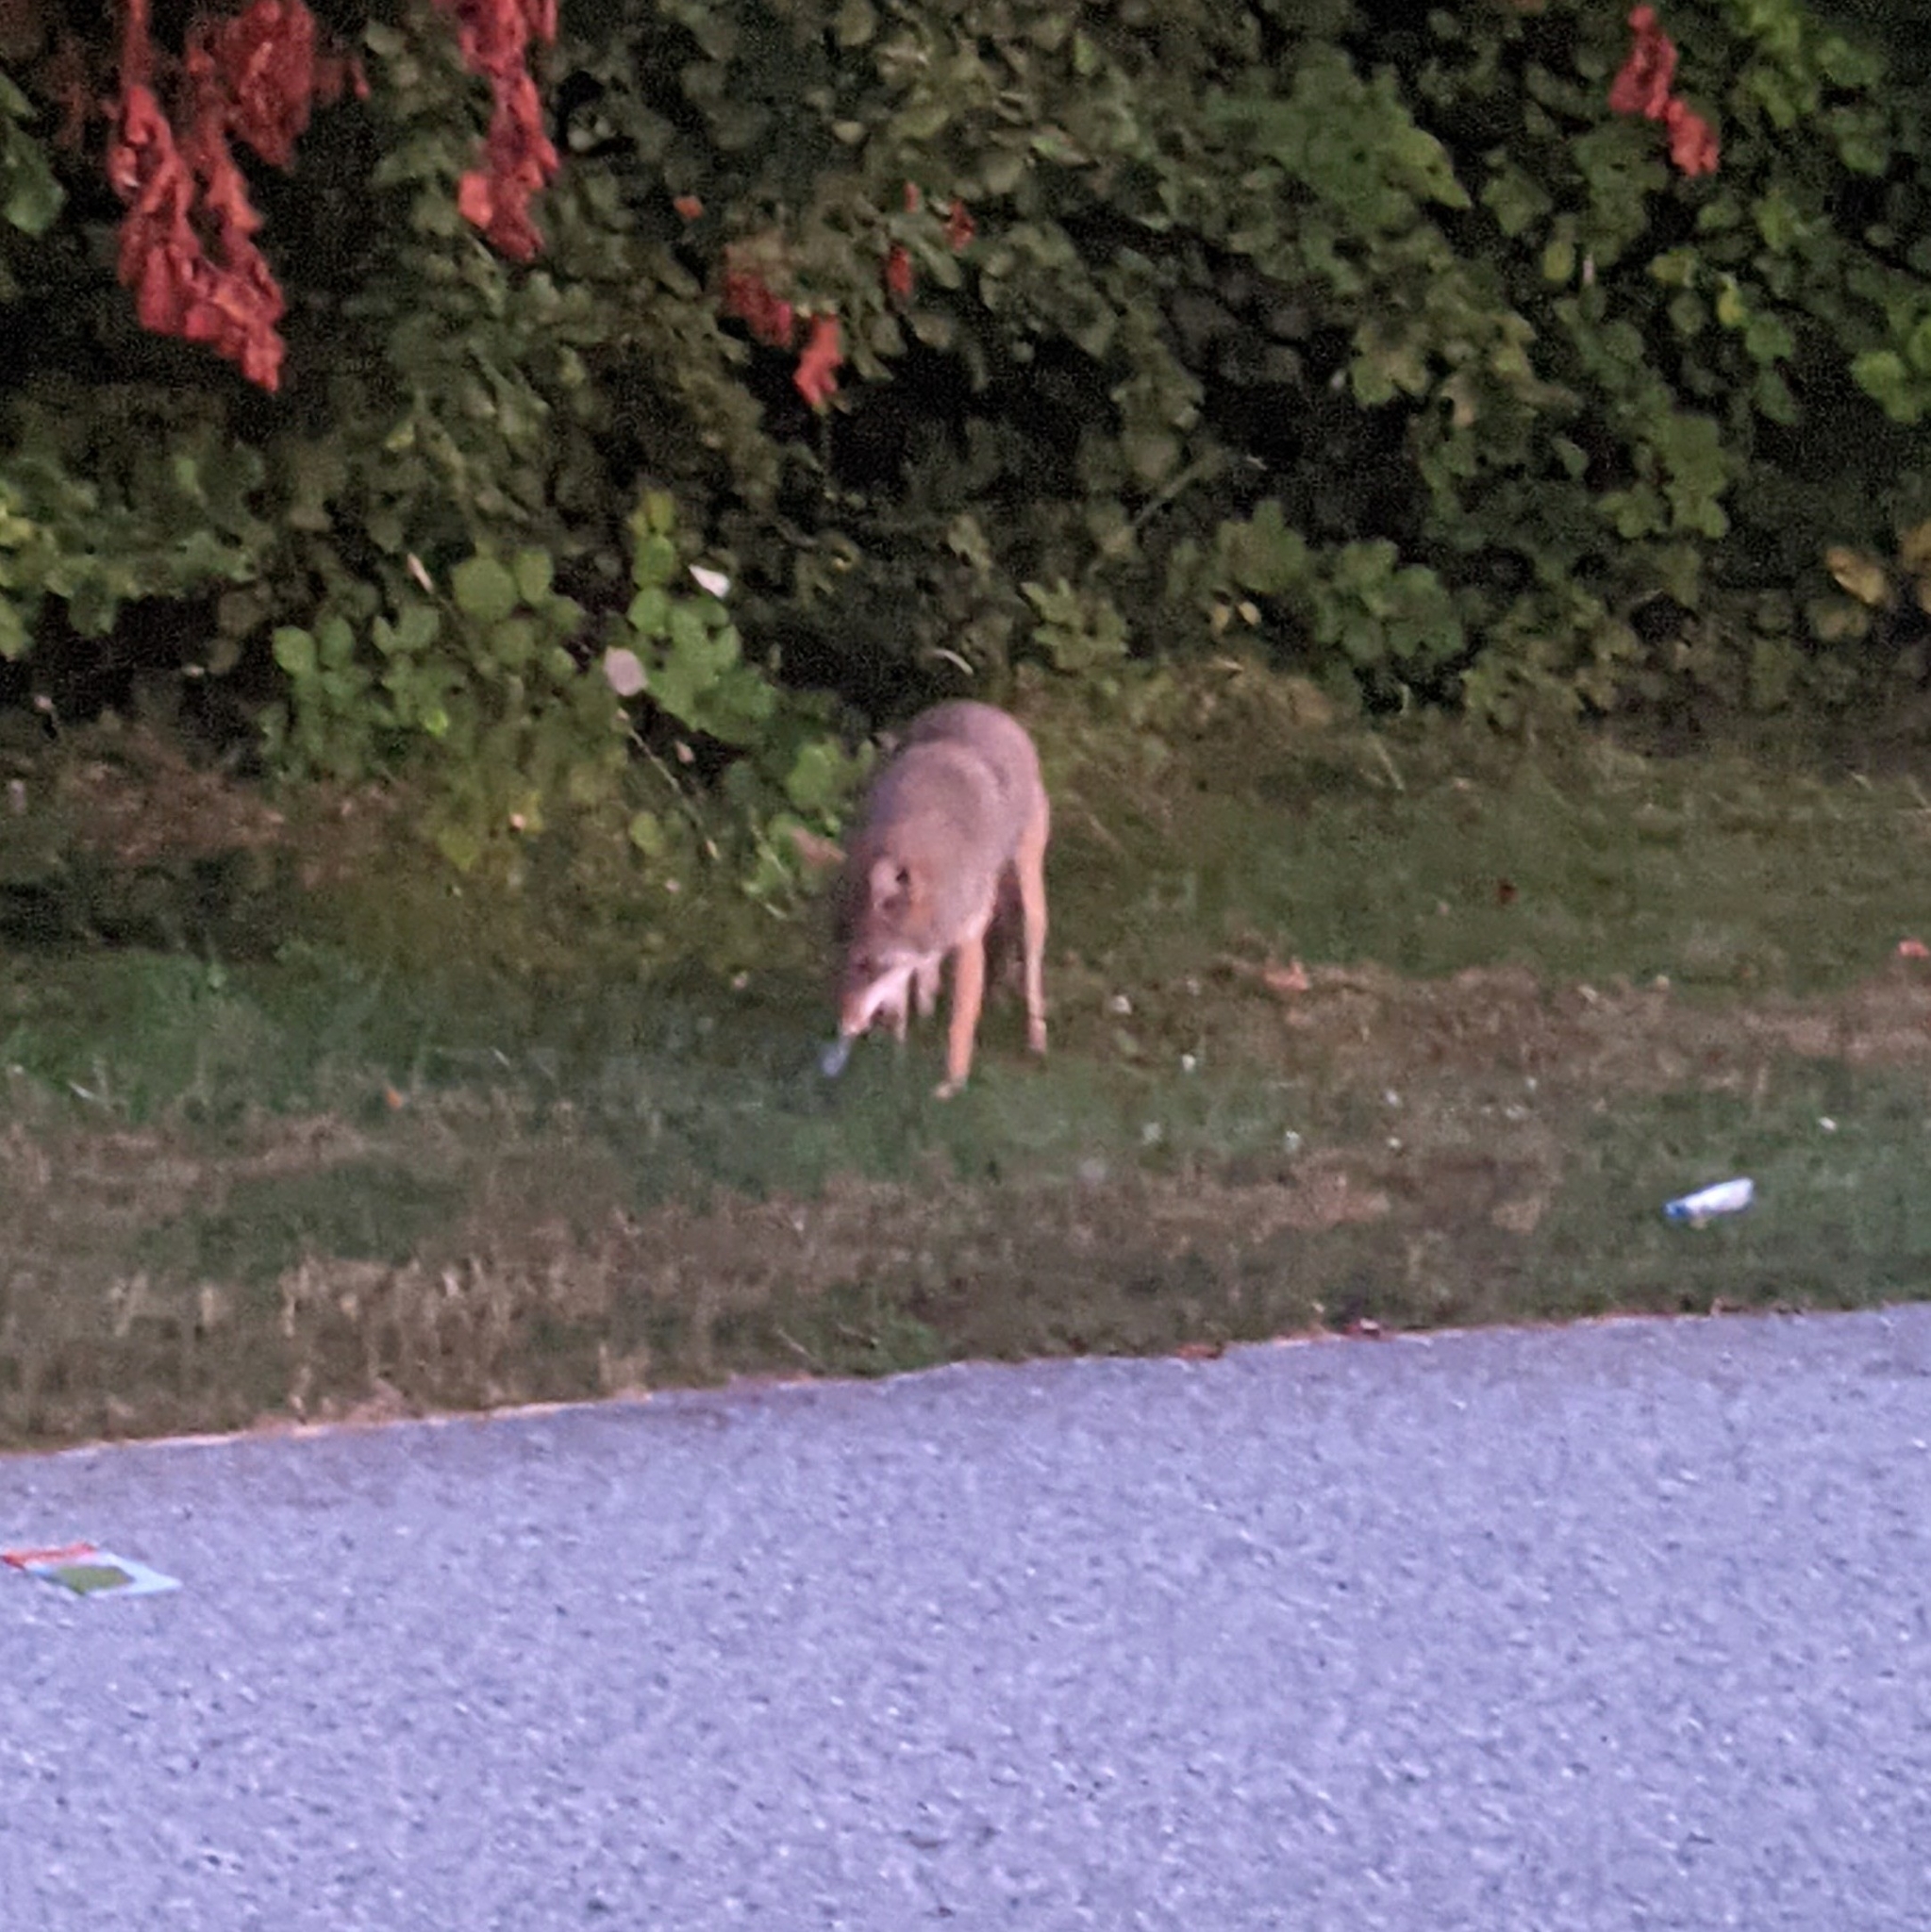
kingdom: Animalia
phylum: Chordata
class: Mammalia
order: Carnivora
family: Canidae
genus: Canis
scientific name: Canis latrans
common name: Coyote
